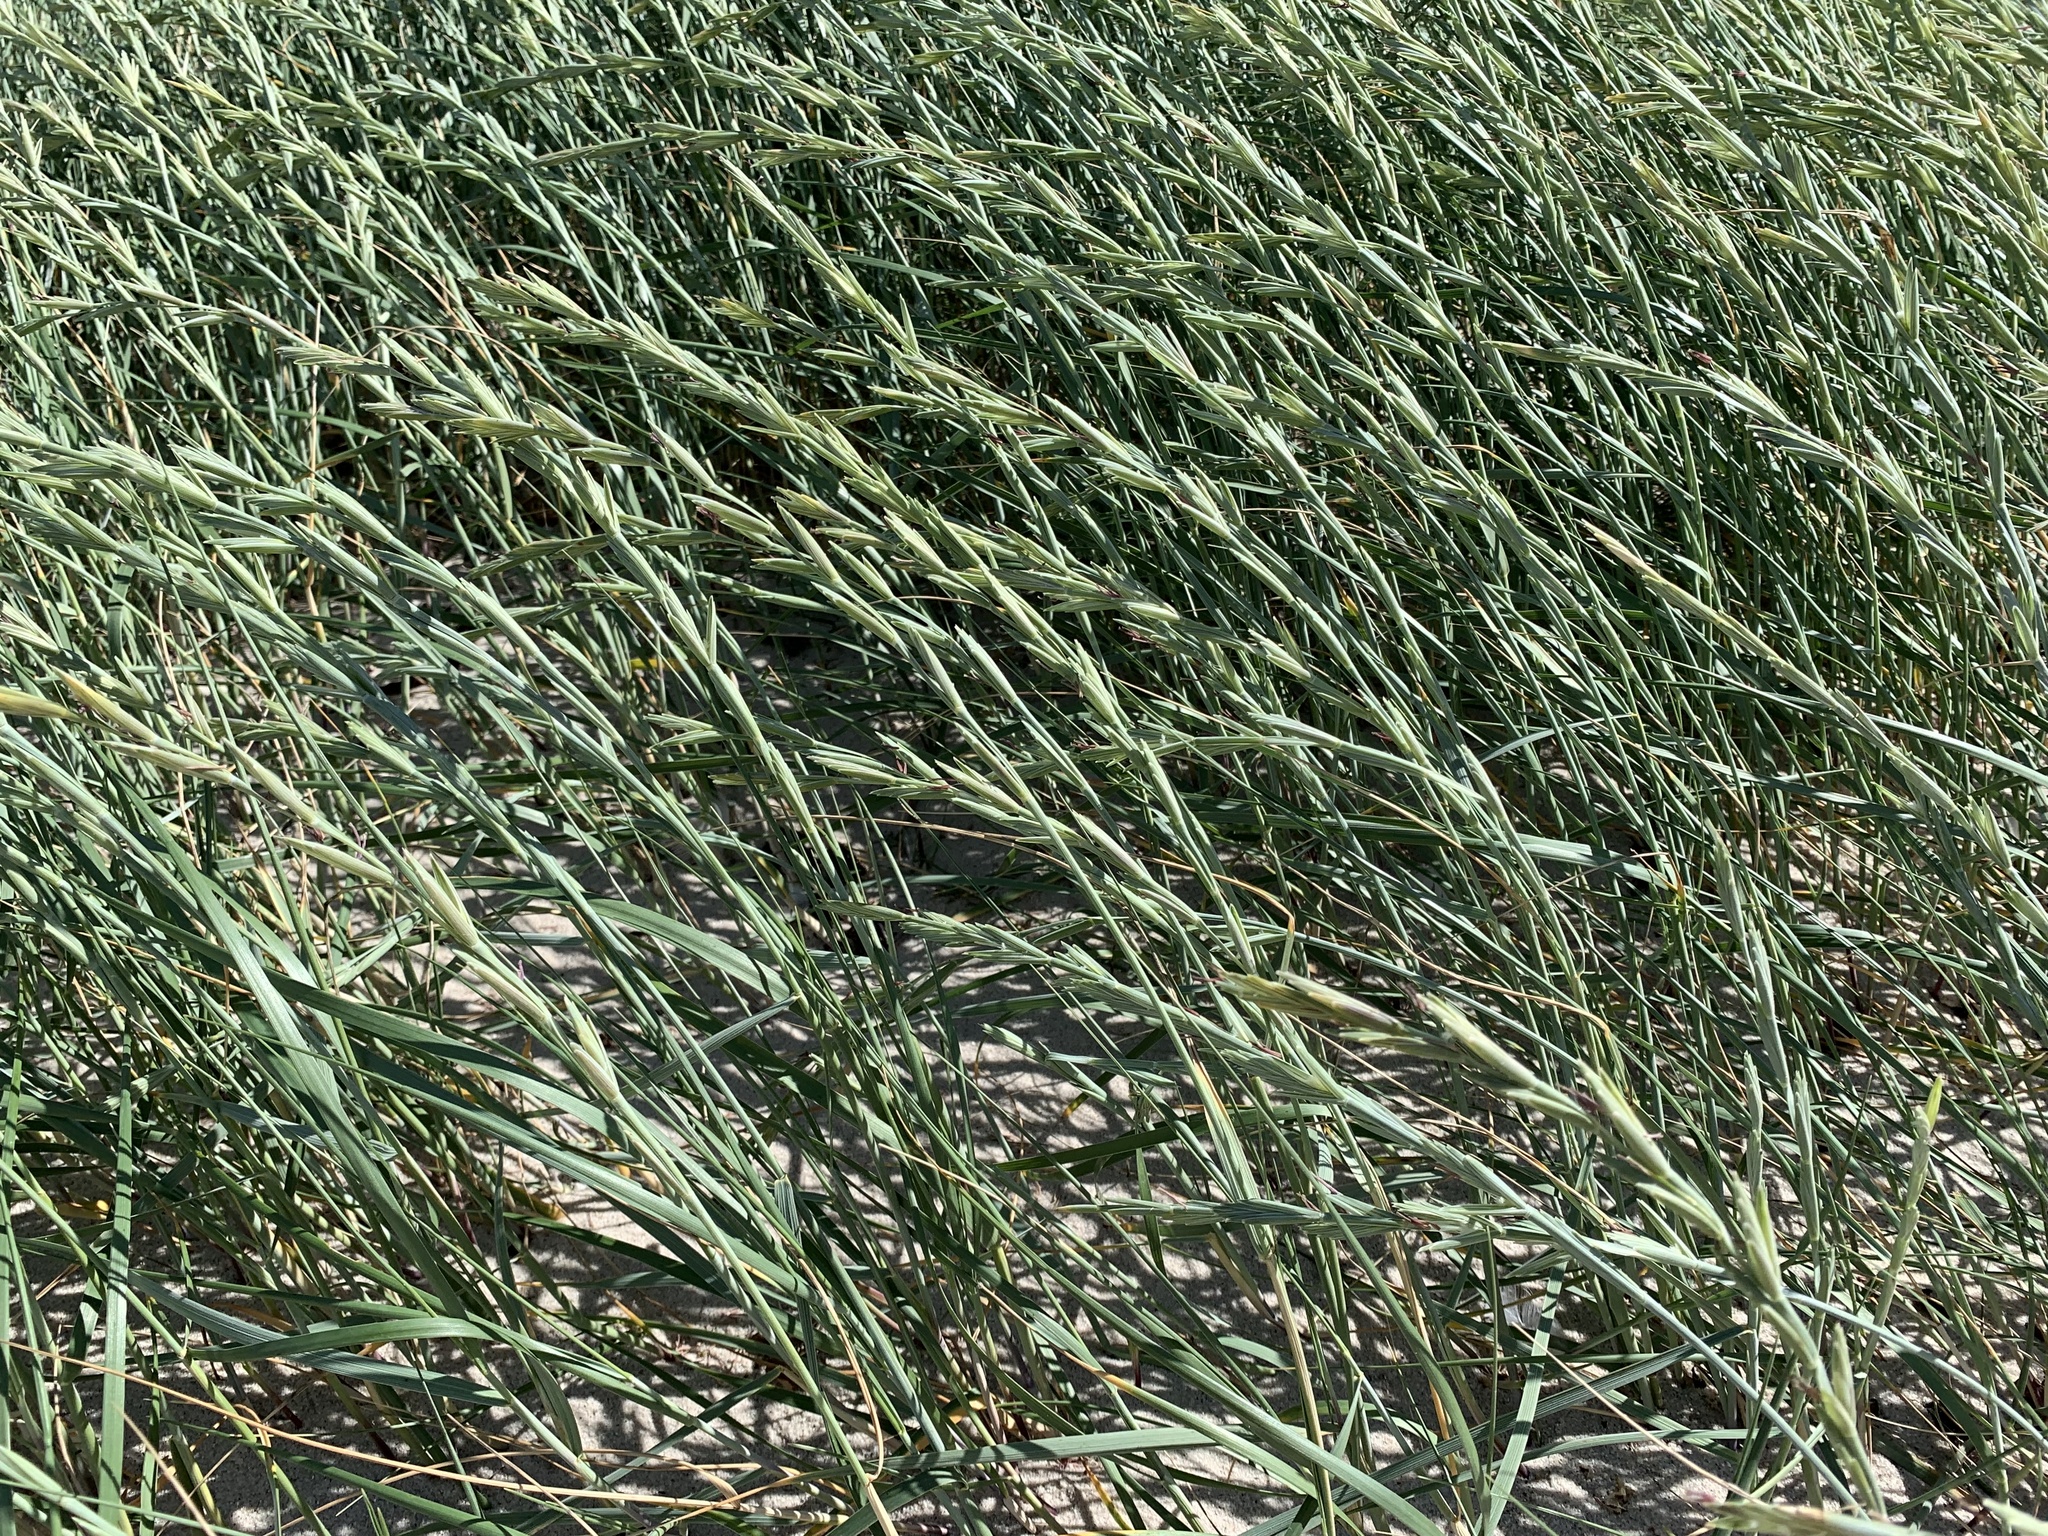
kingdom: Plantae
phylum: Tracheophyta
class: Liliopsida
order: Poales
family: Poaceae
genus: Leymus
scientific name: Leymus arenarius
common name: Lyme-grass
